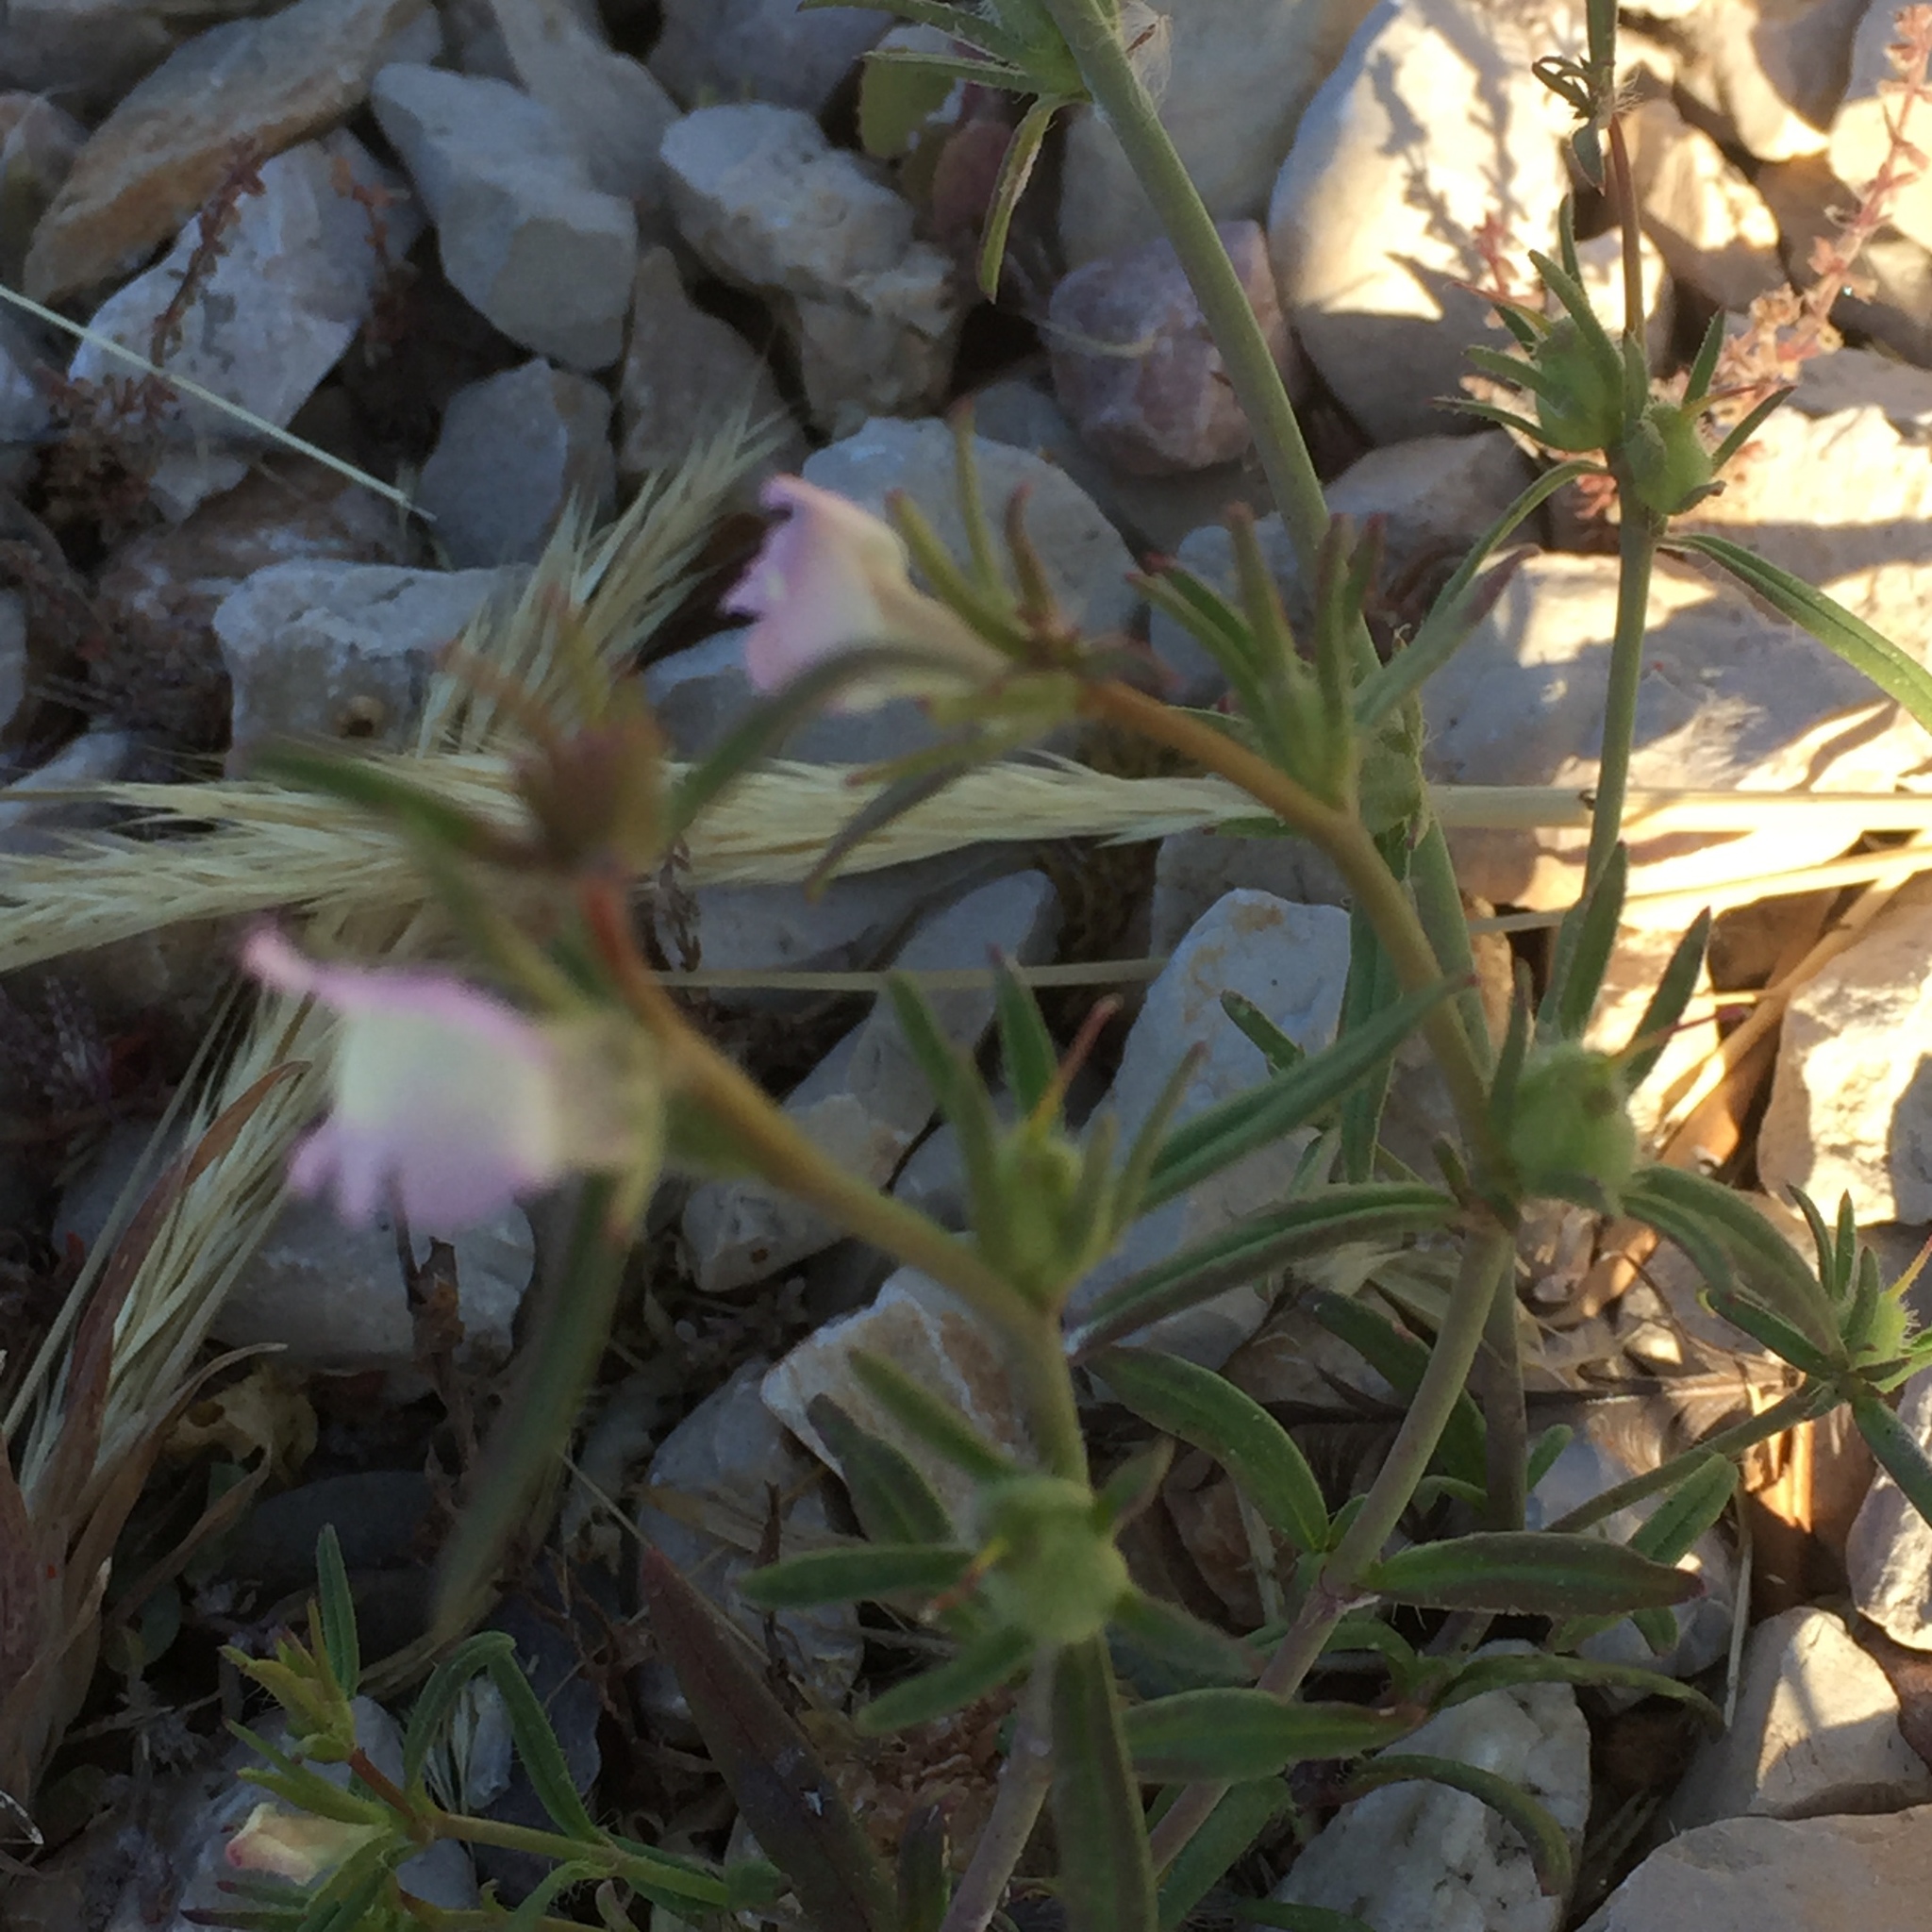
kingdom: Plantae
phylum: Tracheophyta
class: Magnoliopsida
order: Lamiales
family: Plantaginaceae
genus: Misopates
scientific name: Misopates orontium
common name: Weasel's-snout
